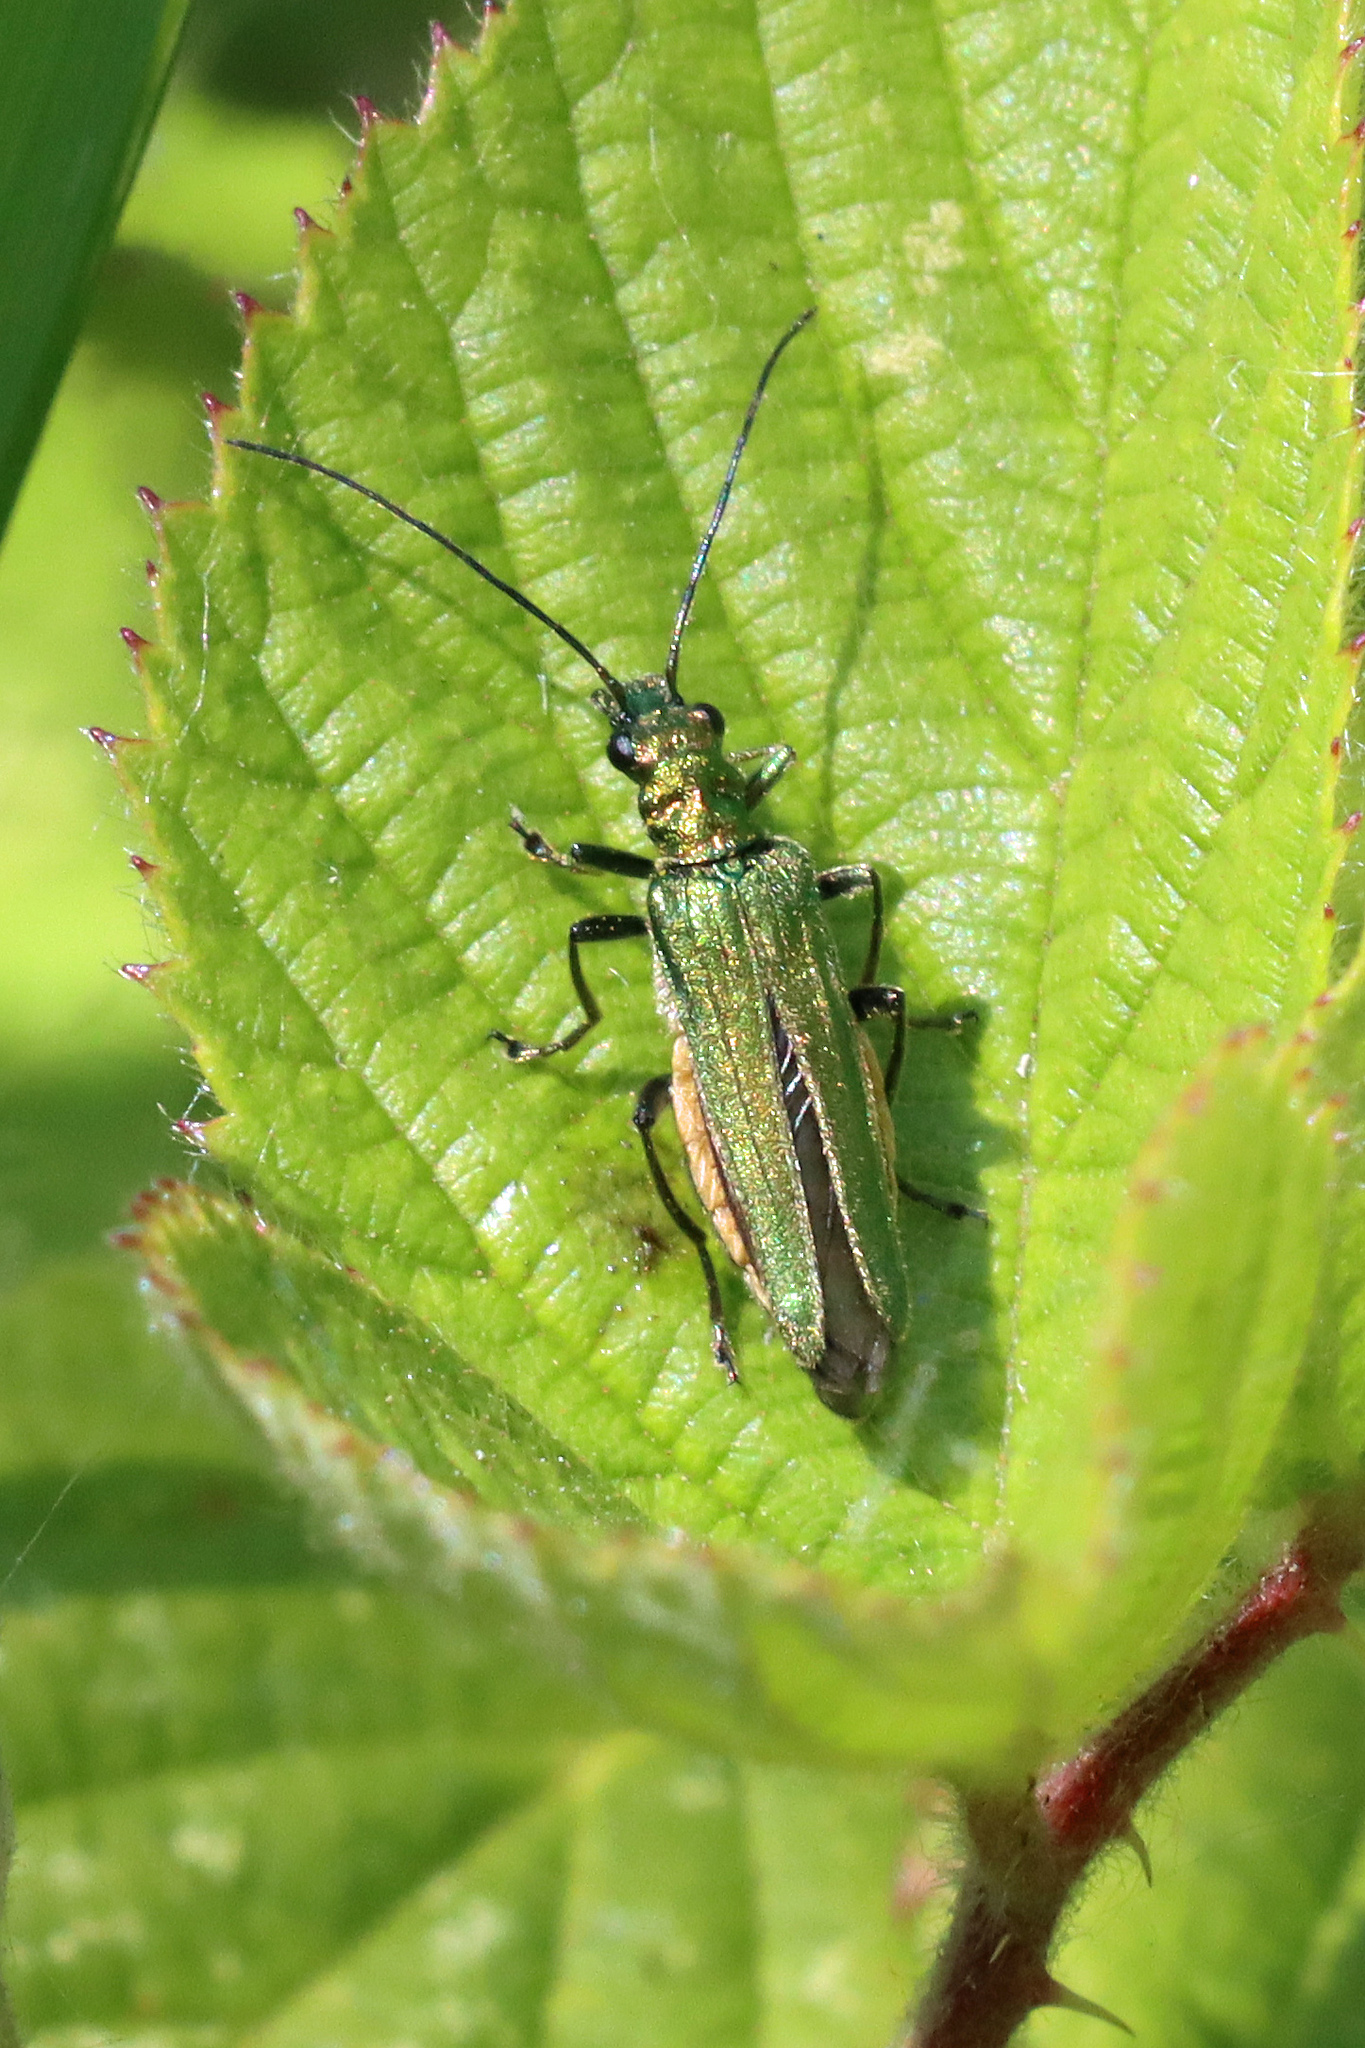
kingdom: Animalia
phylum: Arthropoda
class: Insecta
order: Coleoptera
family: Oedemeridae
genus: Oedemera
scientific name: Oedemera nobilis
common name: Swollen-thighed beetle
